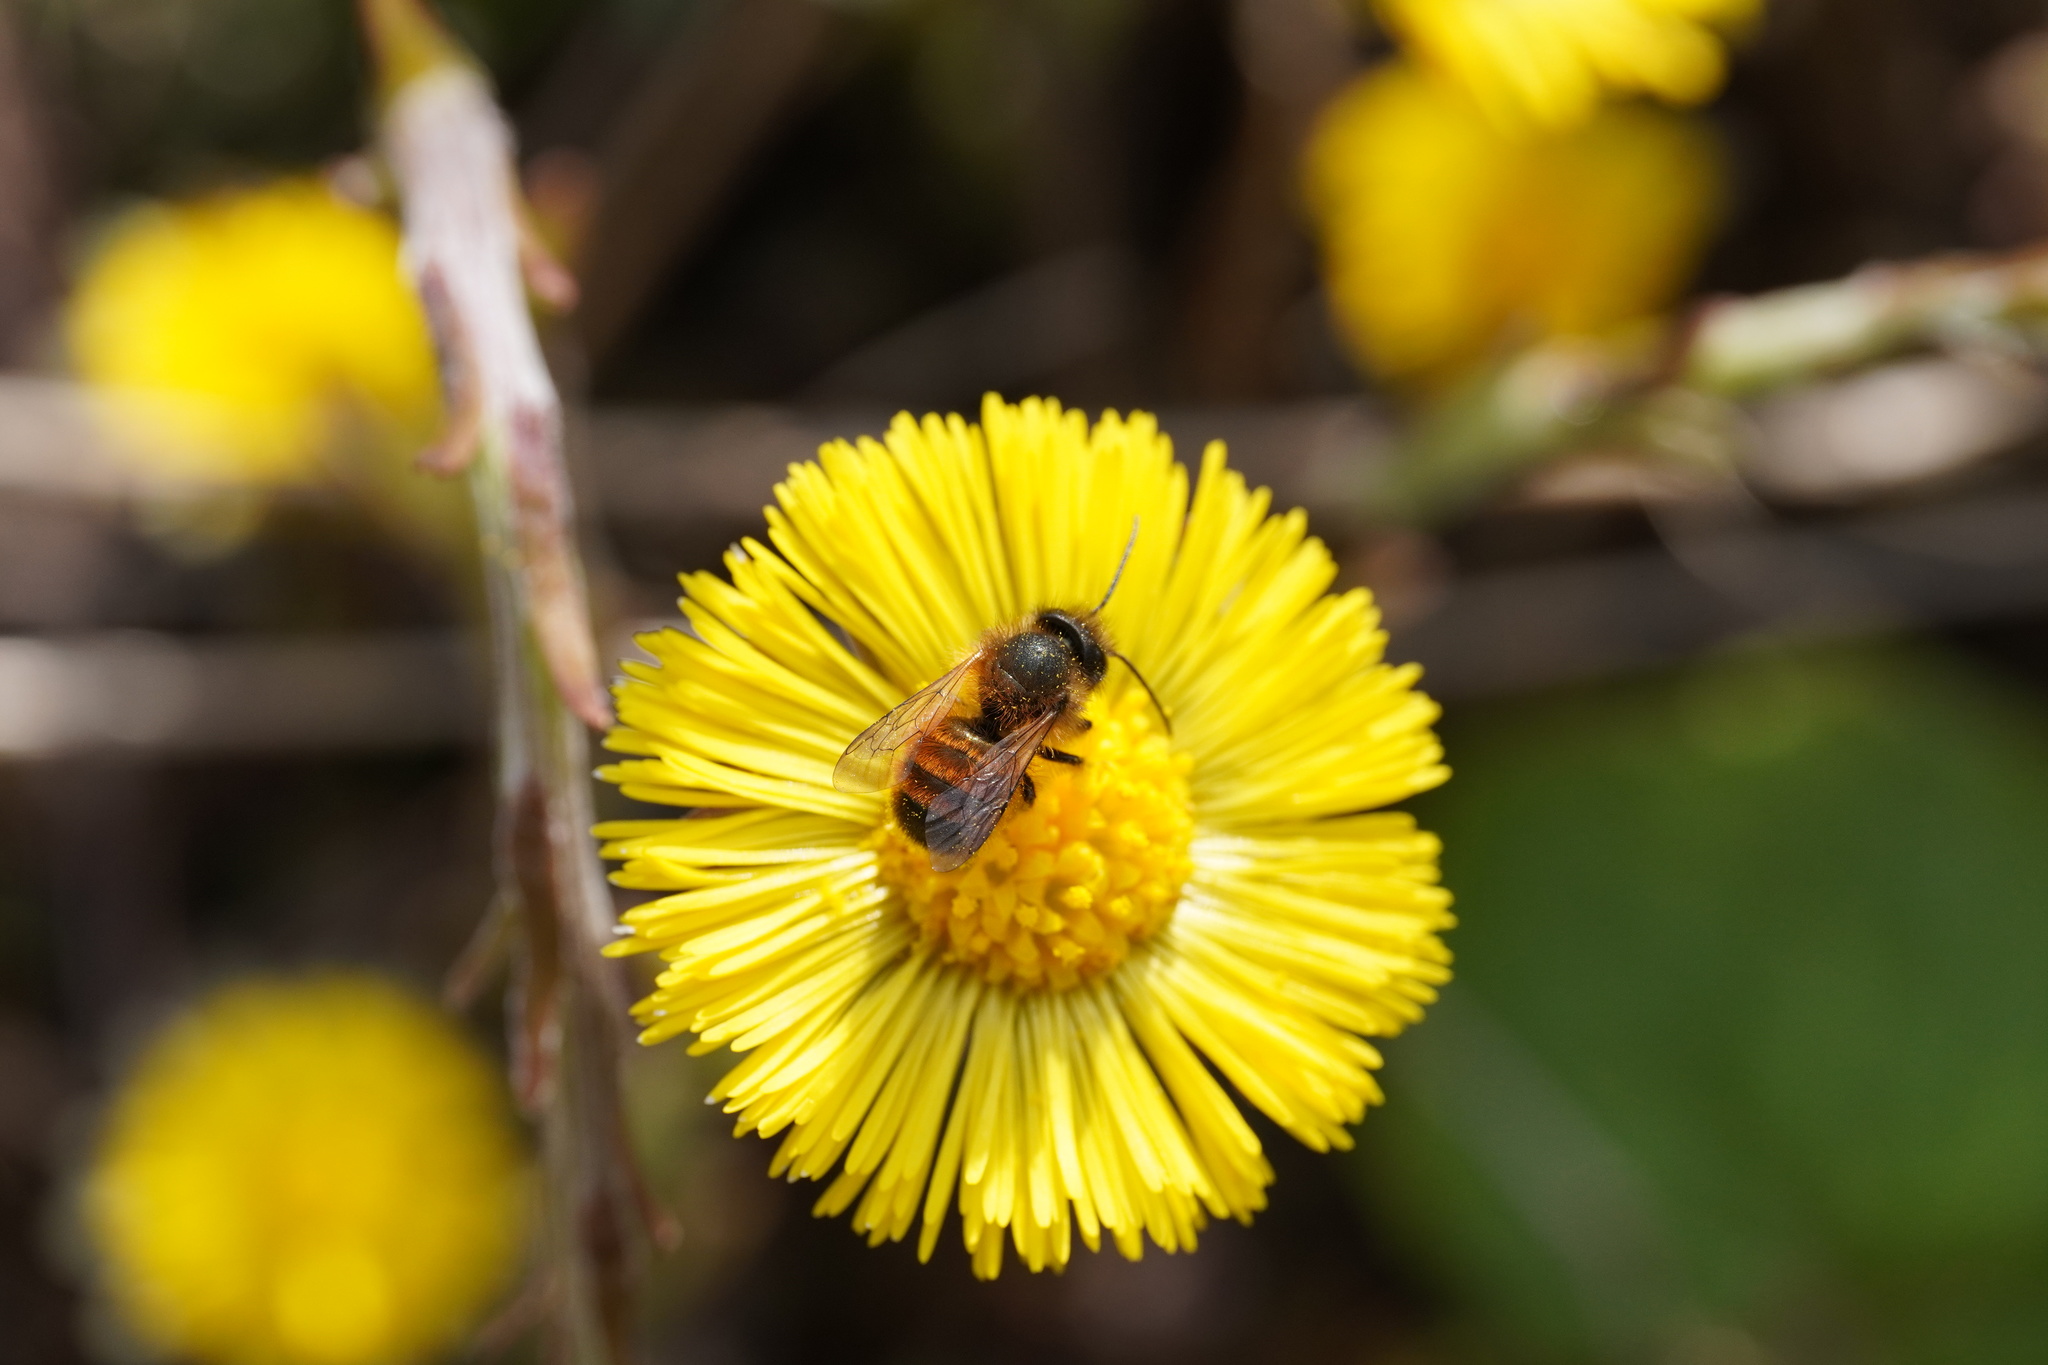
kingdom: Animalia
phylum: Arthropoda
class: Insecta
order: Hymenoptera
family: Megachilidae
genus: Osmia
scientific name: Osmia bicornis
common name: Red mason bee
